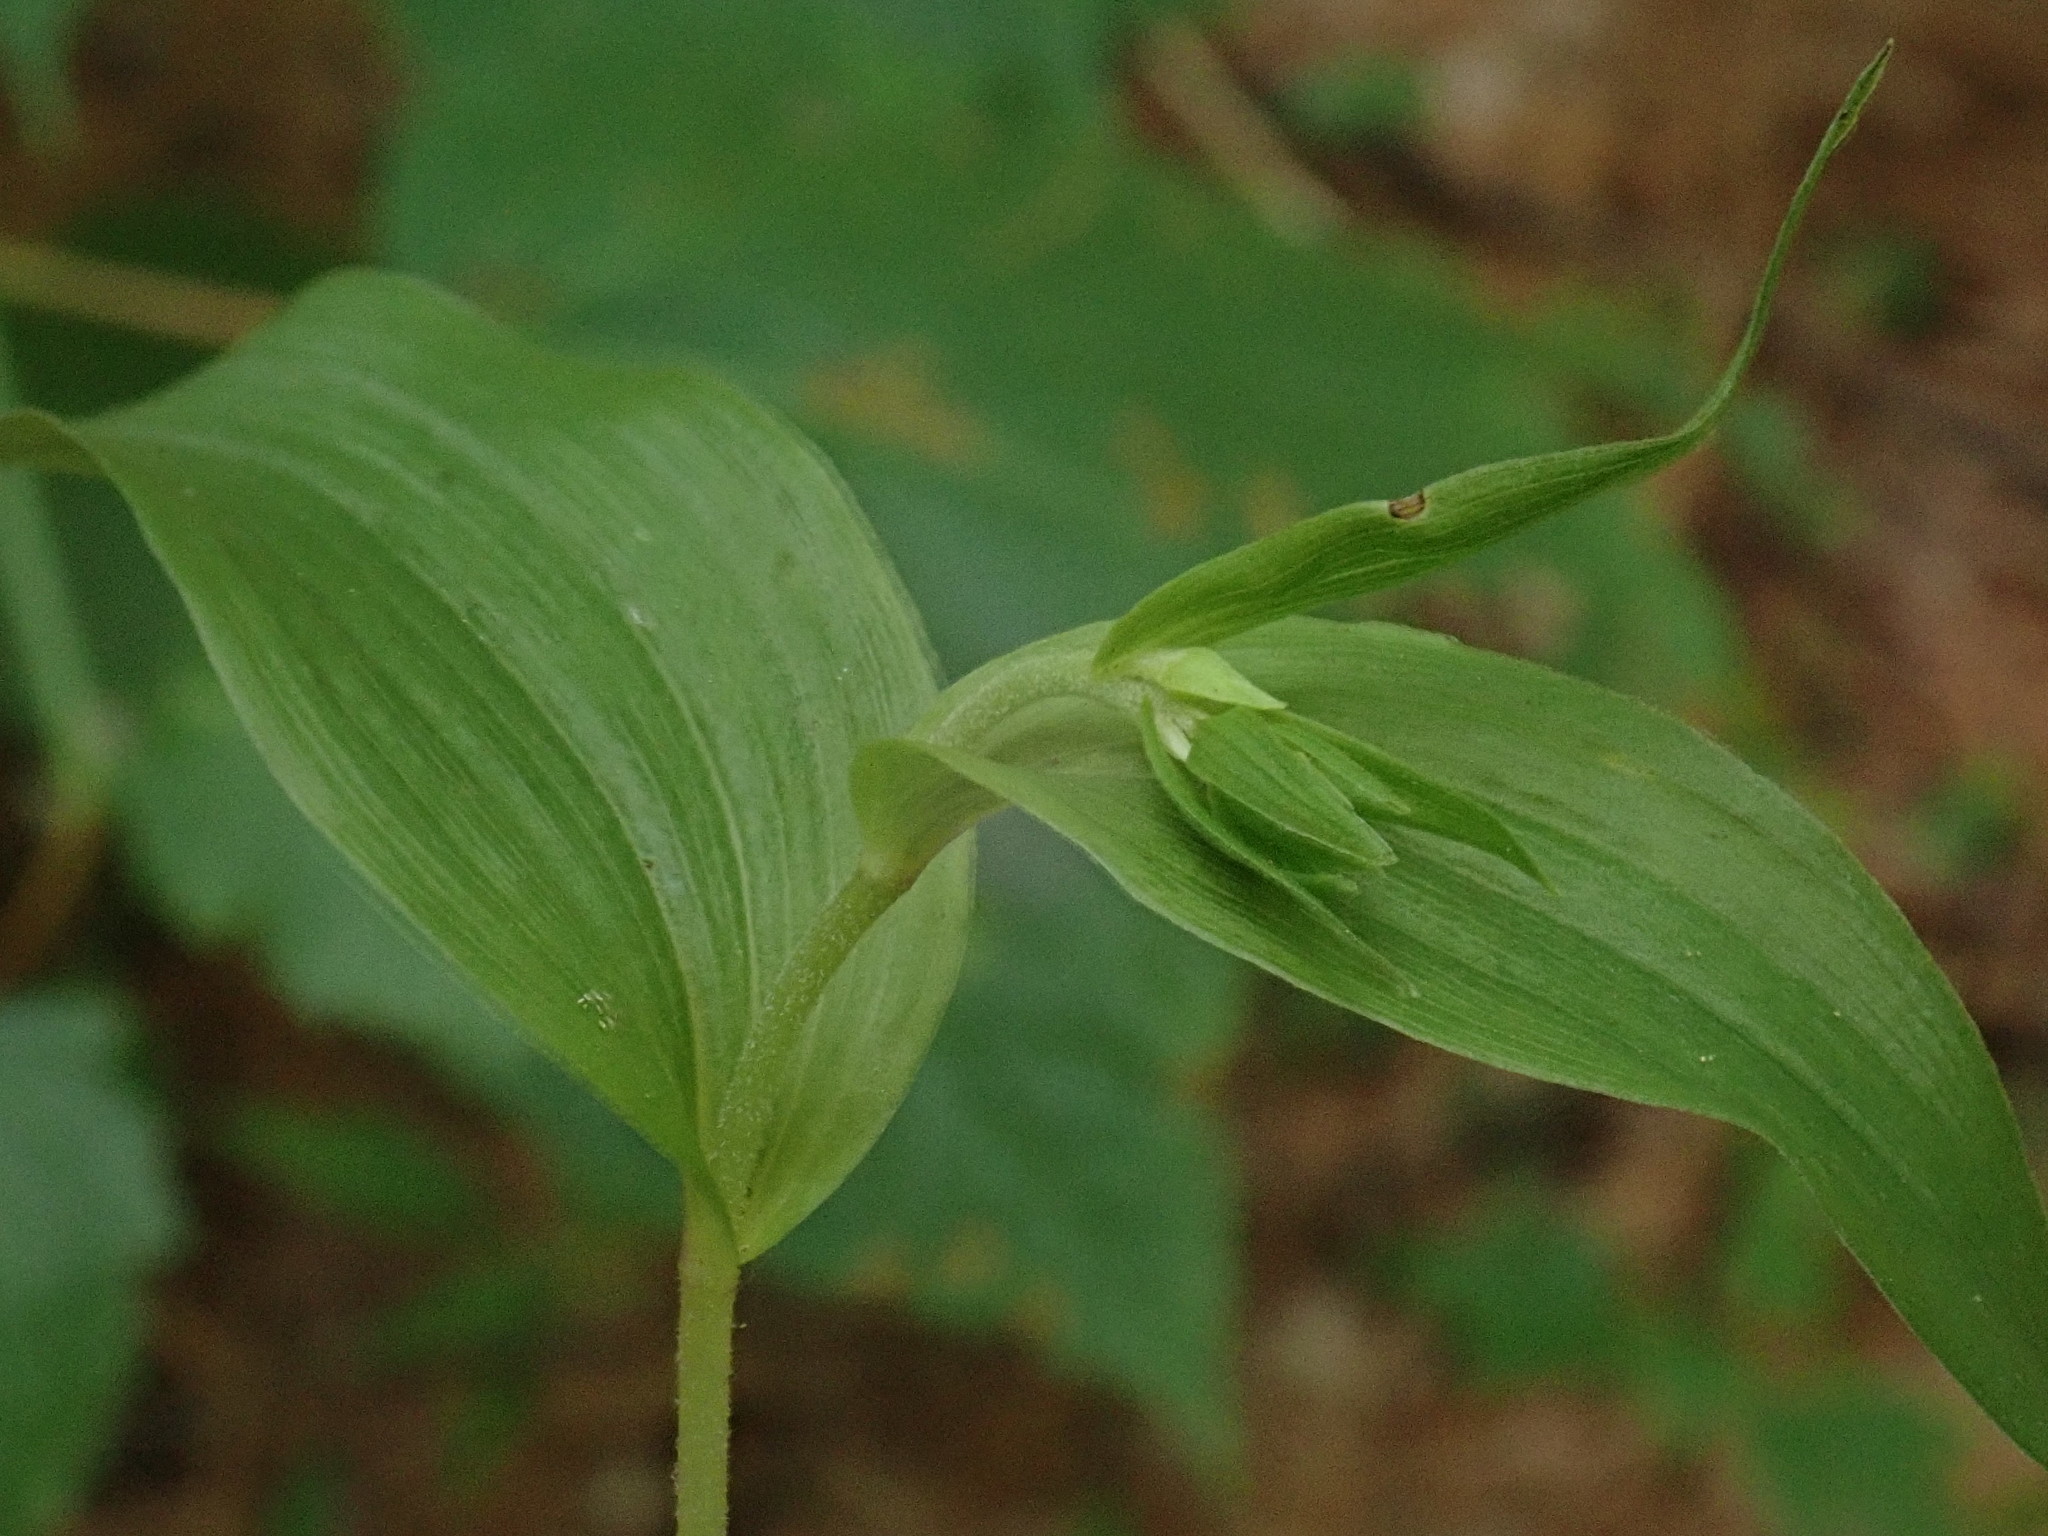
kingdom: Plantae
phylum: Tracheophyta
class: Liliopsida
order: Asparagales
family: Orchidaceae
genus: Epipactis
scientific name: Epipactis helleborine
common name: Broad-leaved helleborine
